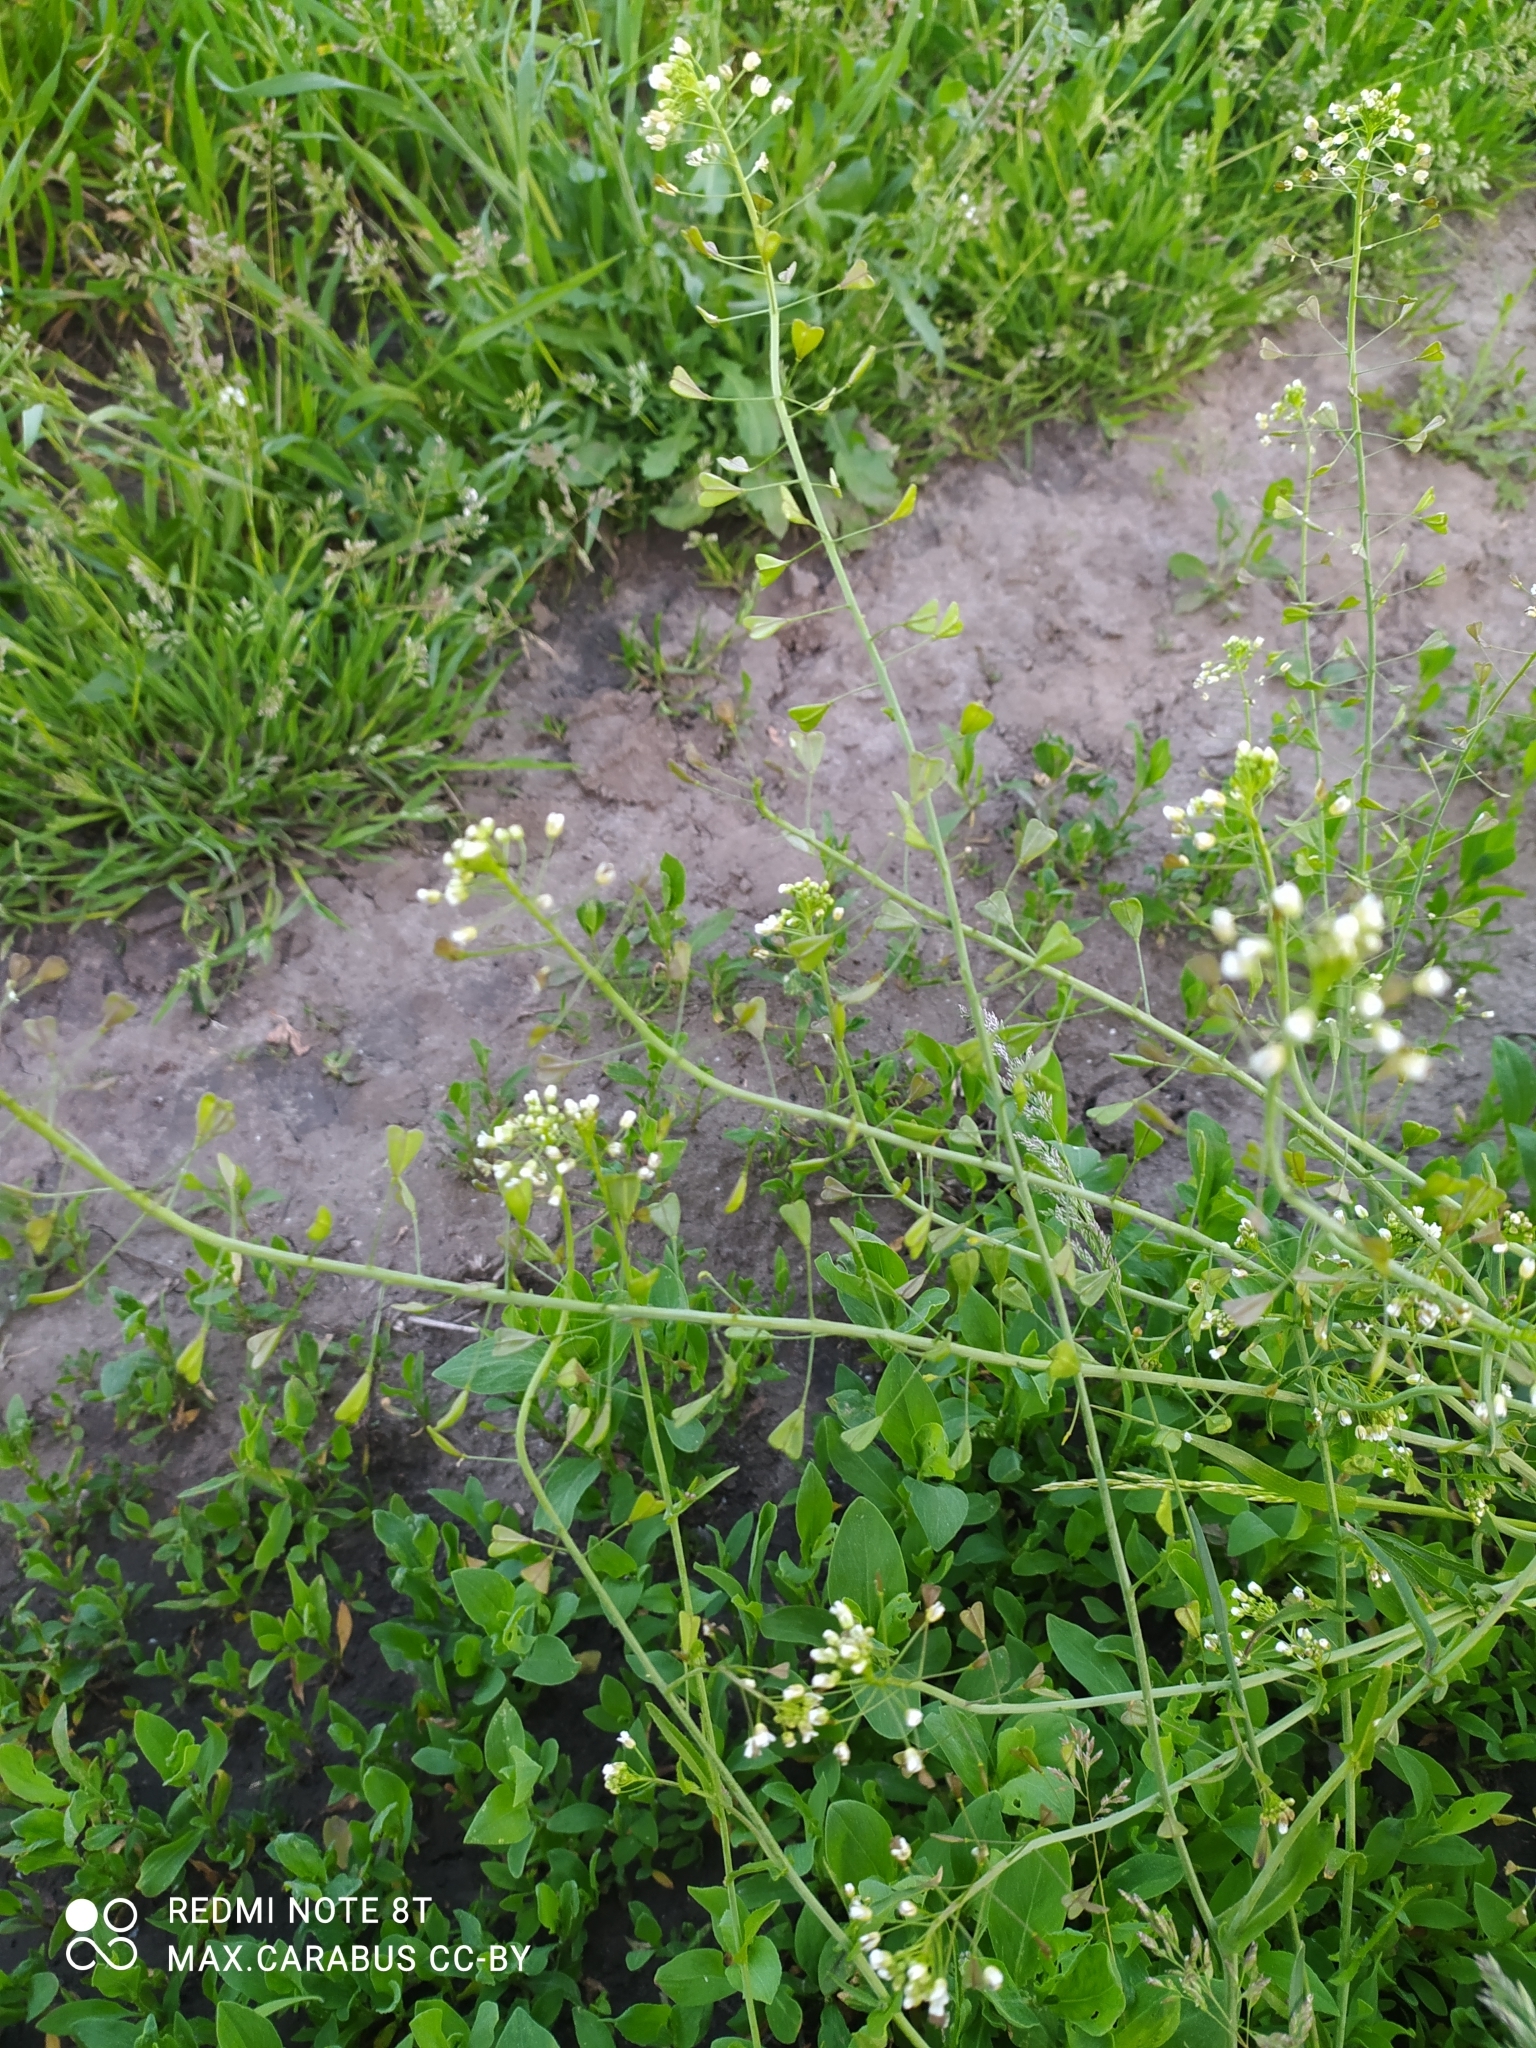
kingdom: Plantae
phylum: Tracheophyta
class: Magnoliopsida
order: Brassicales
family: Brassicaceae
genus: Capsella
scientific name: Capsella bursa-pastoris
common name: Shepherd's purse
